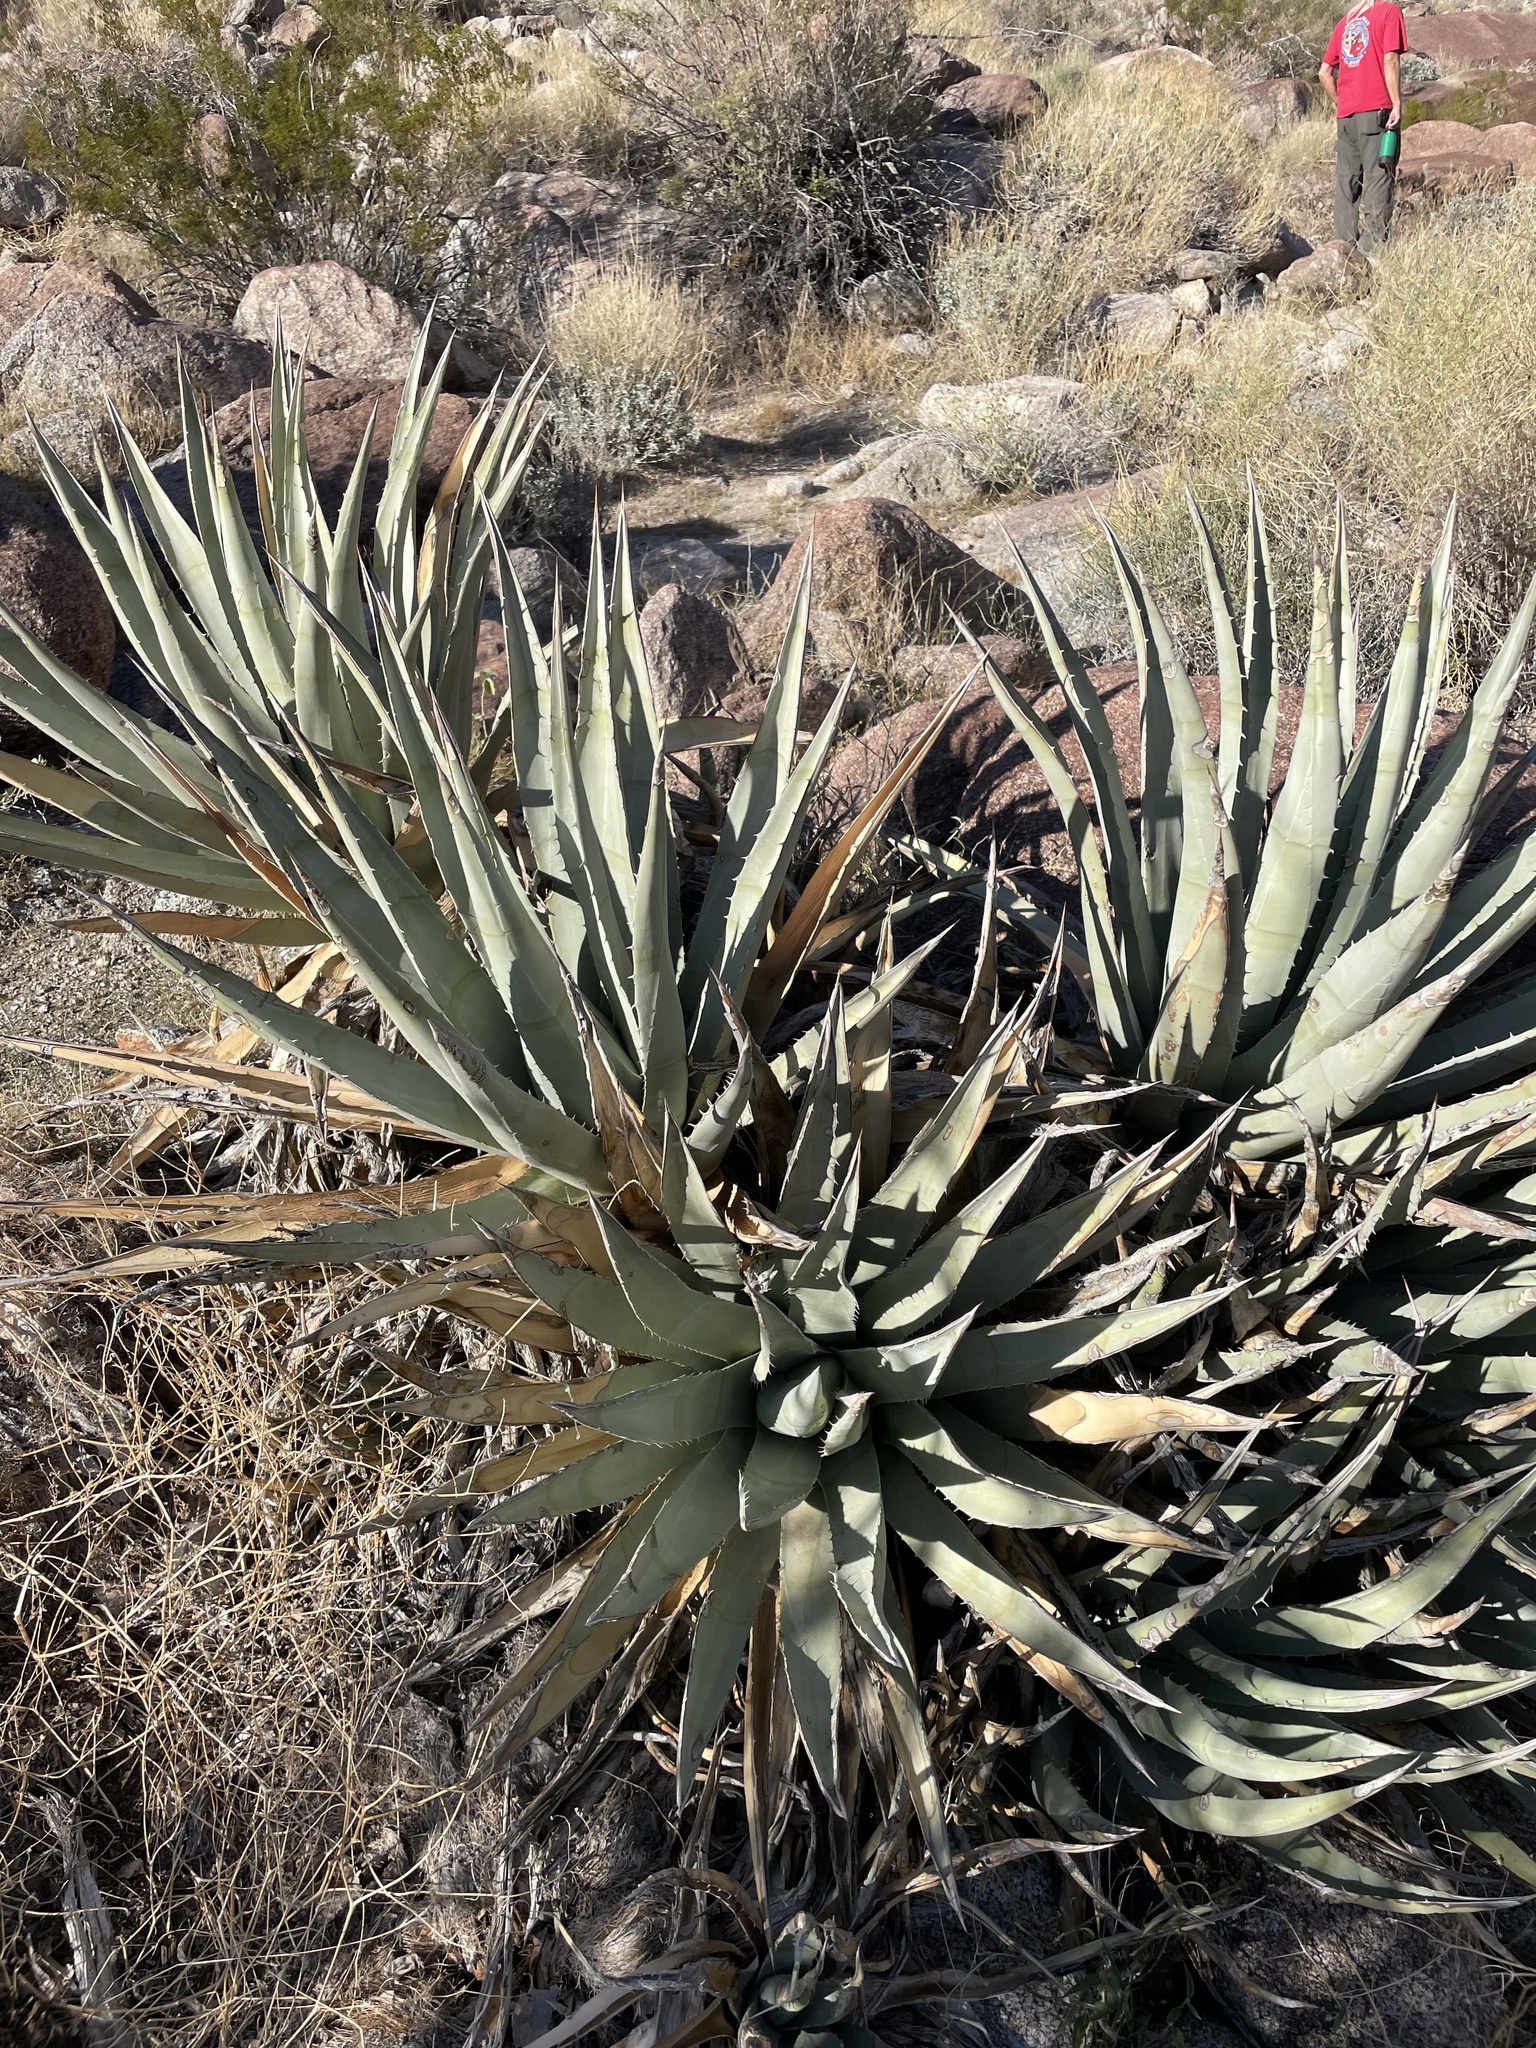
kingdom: Plantae
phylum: Tracheophyta
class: Liliopsida
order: Asparagales
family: Asparagaceae
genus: Agave
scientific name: Agave deserti
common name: Desert agave
